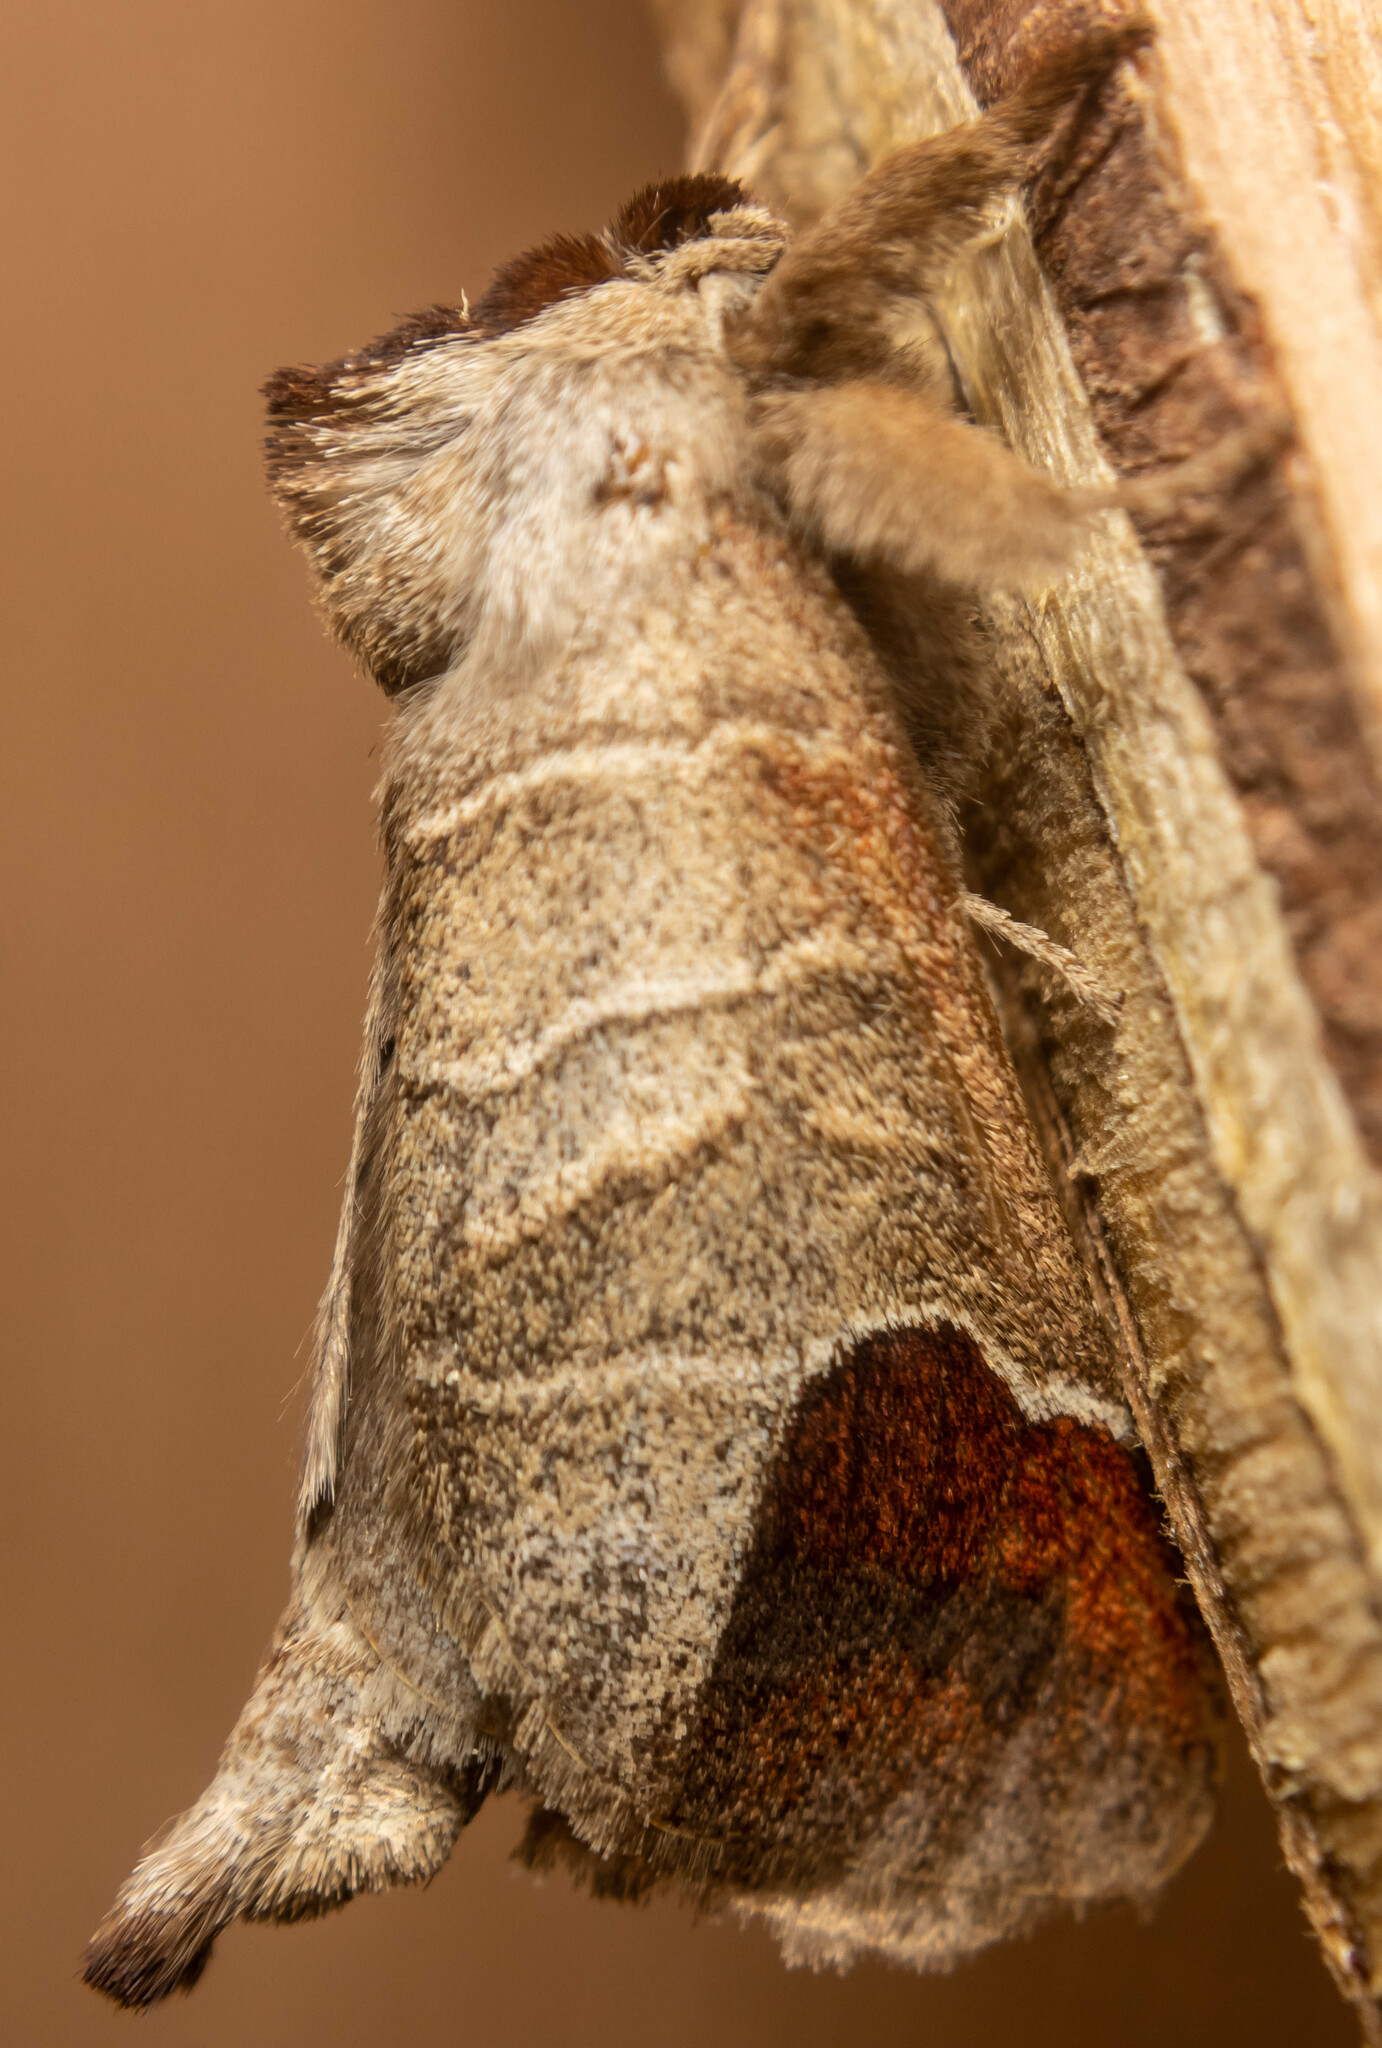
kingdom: Animalia
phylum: Arthropoda
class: Insecta
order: Lepidoptera
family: Notodontidae
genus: Clostera
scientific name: Clostera curtula
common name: Chocolate-tip
